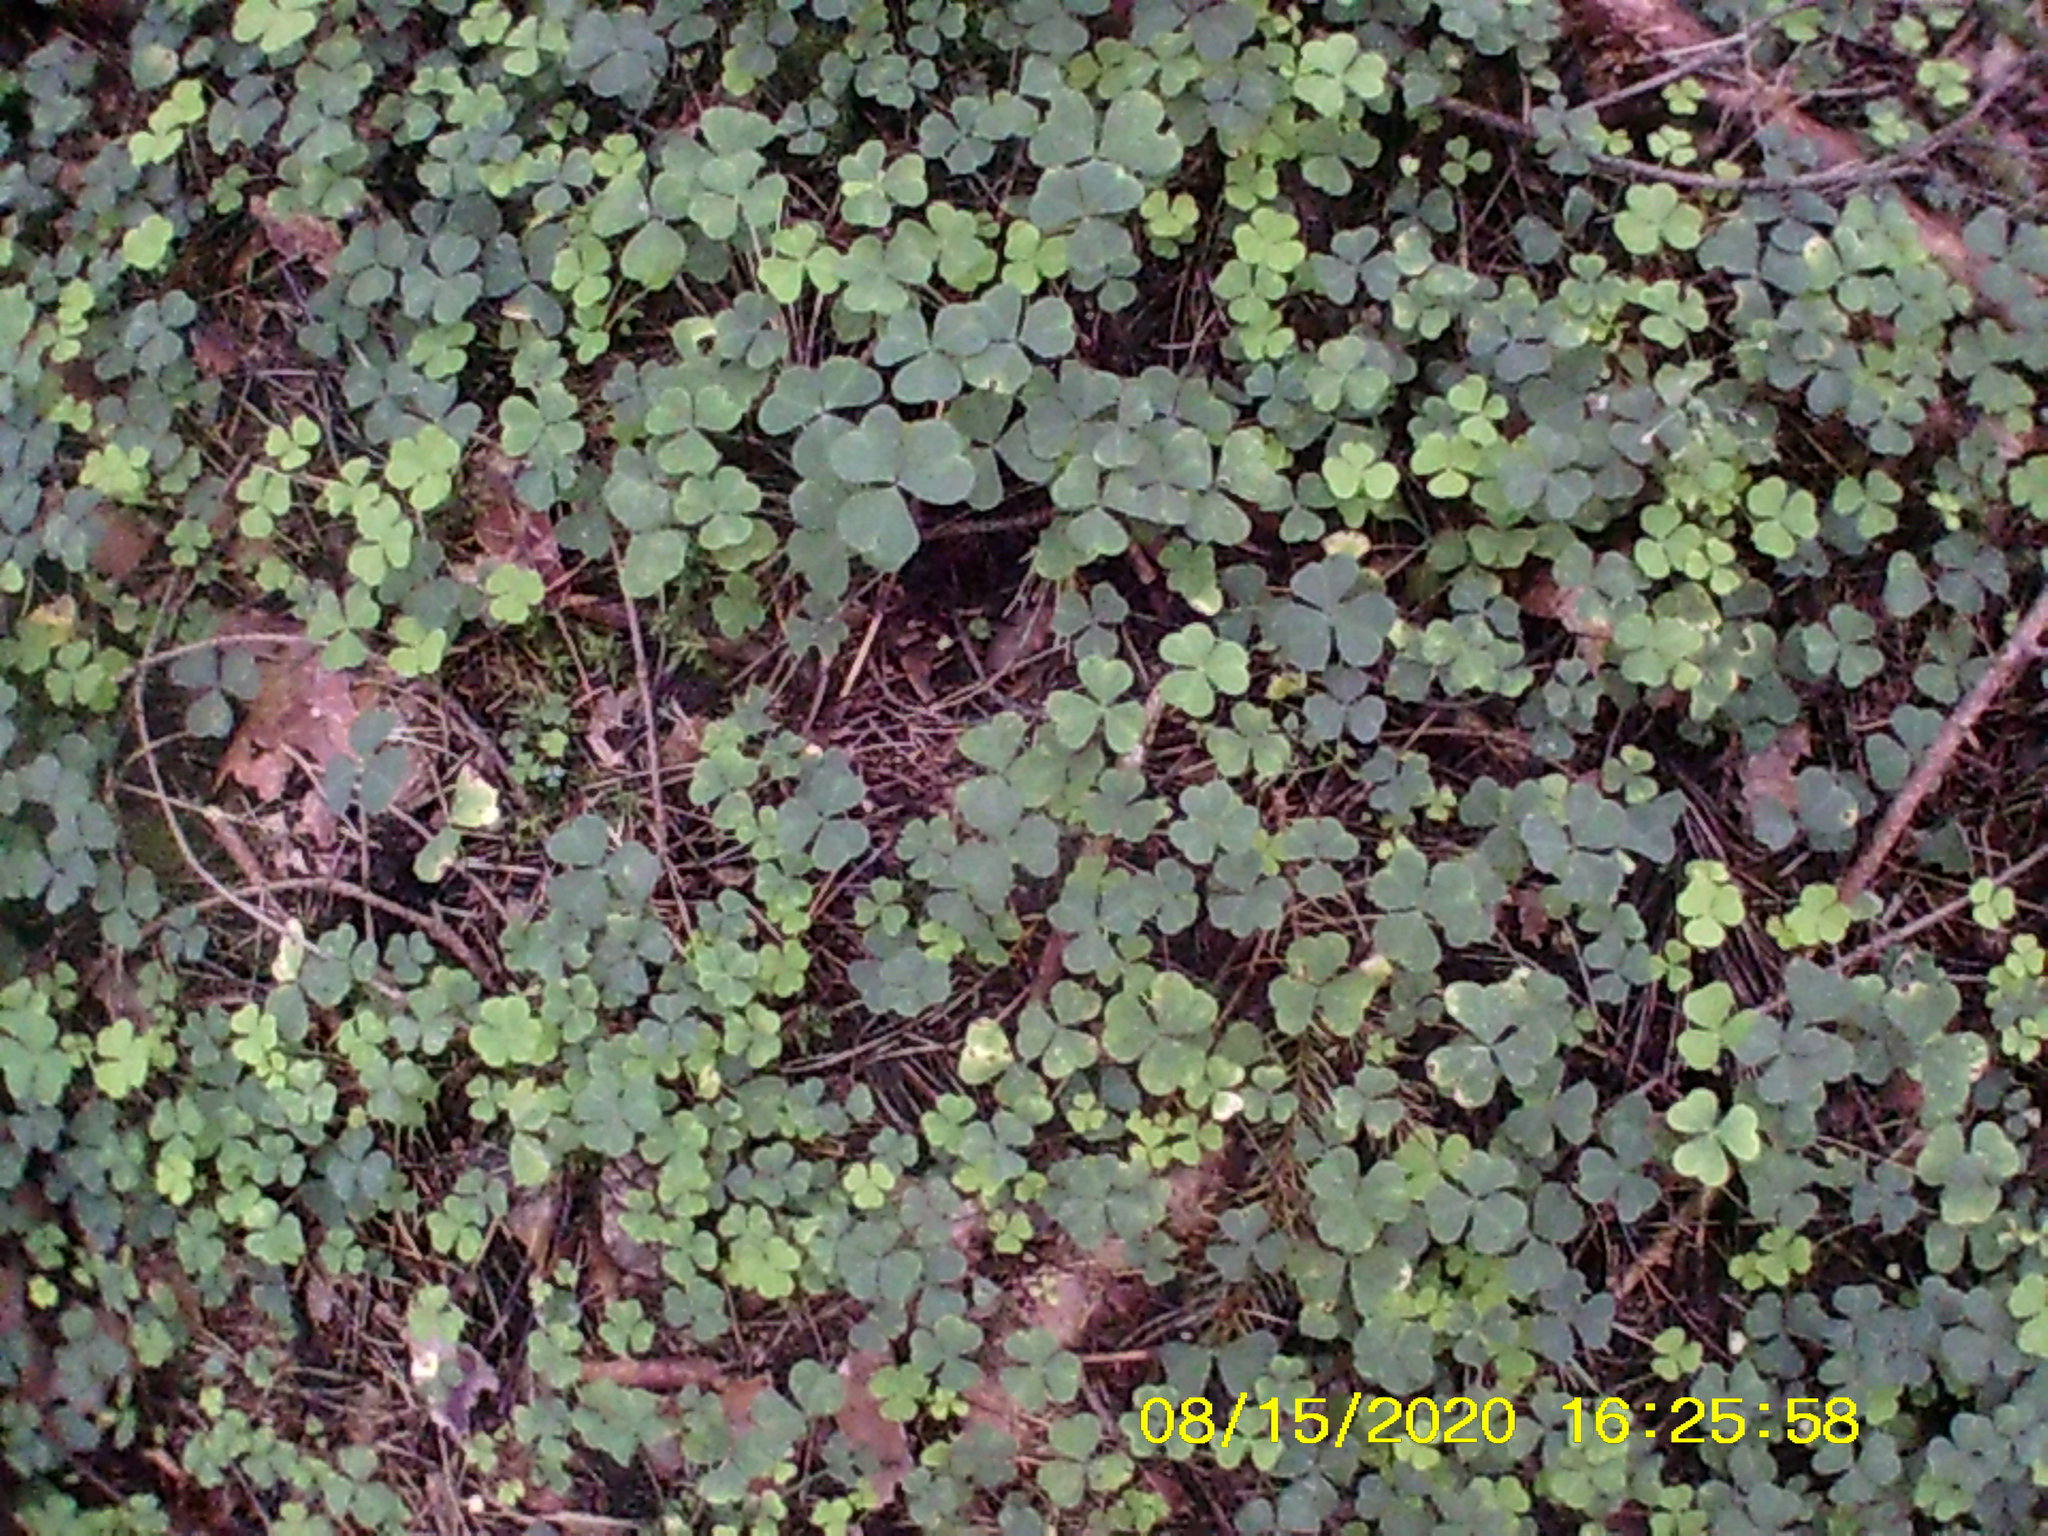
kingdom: Plantae
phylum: Tracheophyta
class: Magnoliopsida
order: Oxalidales
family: Oxalidaceae
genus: Oxalis
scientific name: Oxalis acetosella
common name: Wood-sorrel
